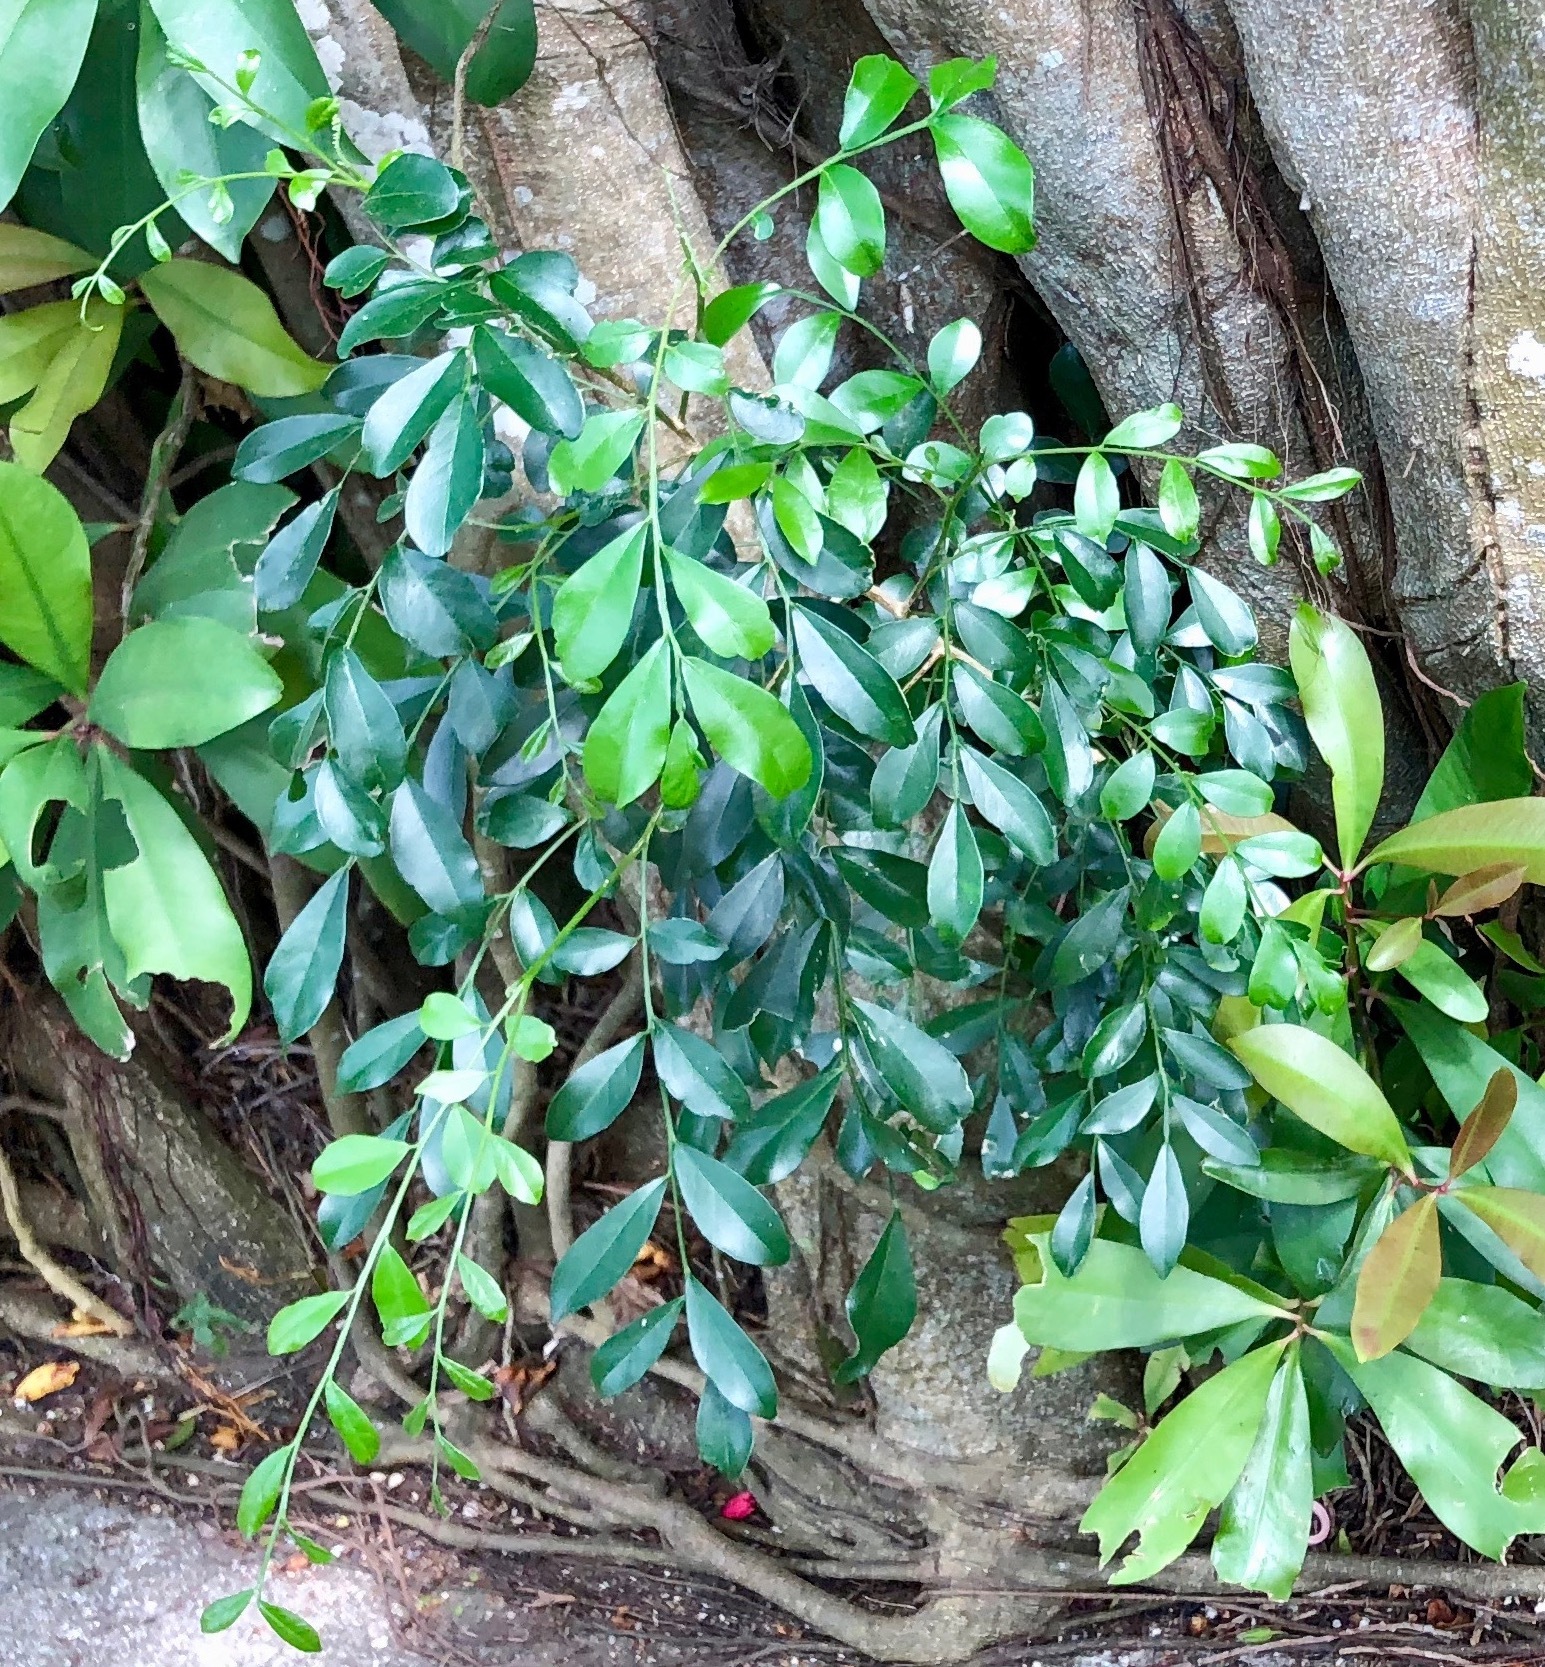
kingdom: Plantae
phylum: Tracheophyta
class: Magnoliopsida
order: Sapindales
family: Rutaceae
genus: Murraya
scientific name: Murraya paniculata
